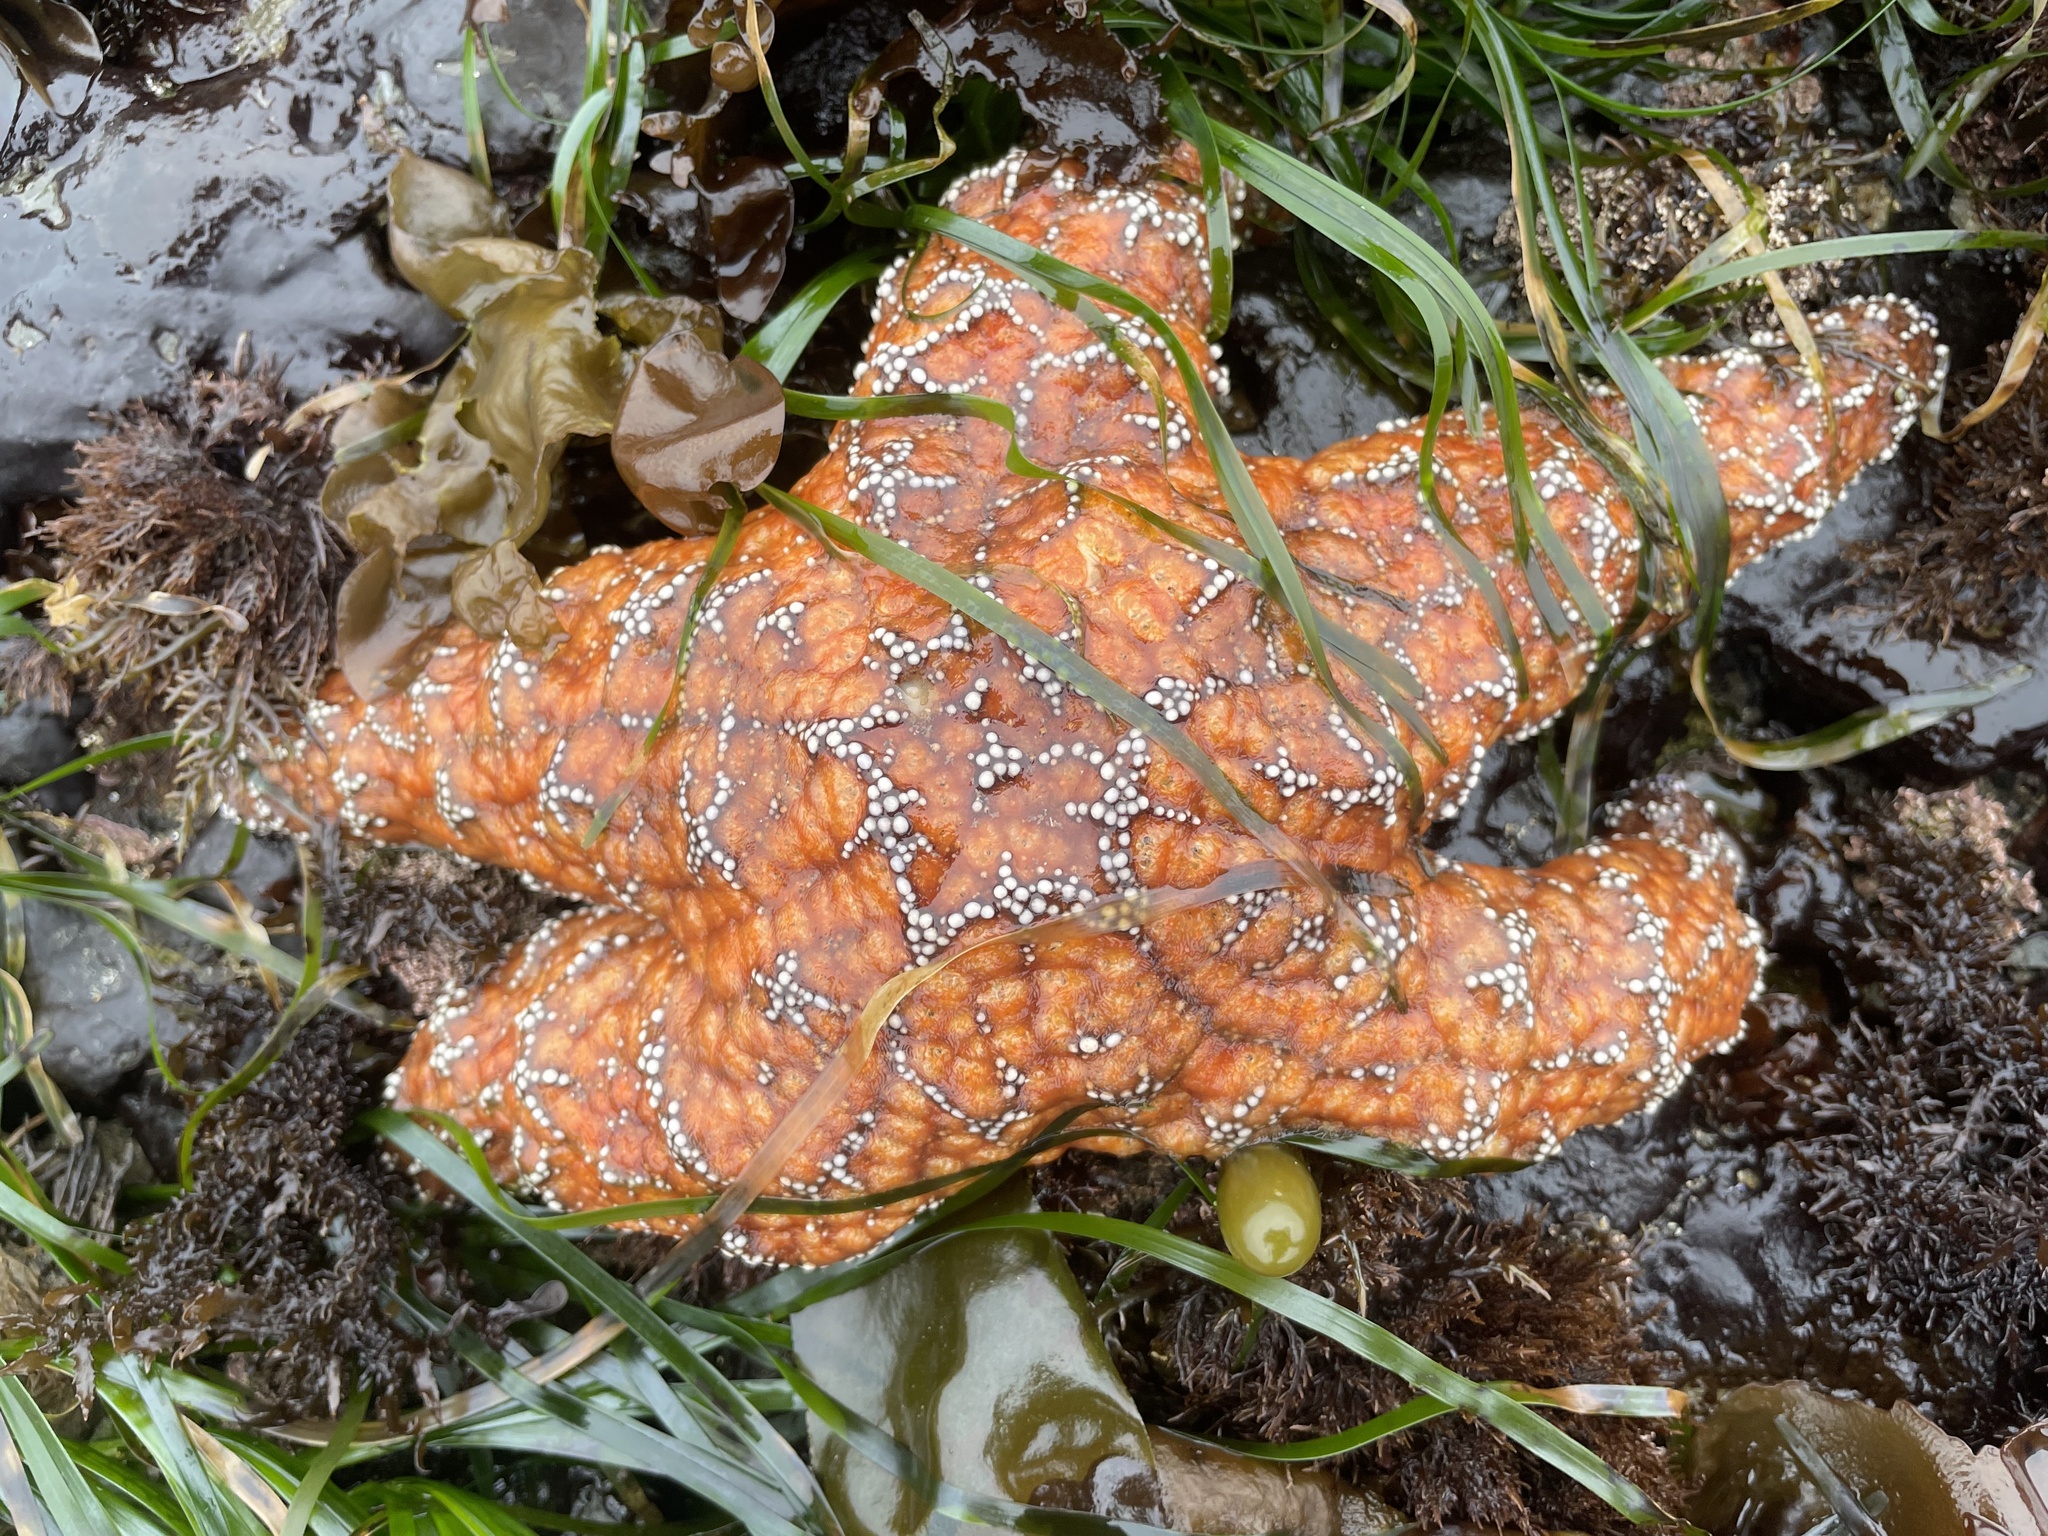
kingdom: Animalia
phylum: Echinodermata
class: Asteroidea
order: Forcipulatida
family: Asteriidae
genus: Pisaster
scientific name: Pisaster ochraceus
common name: Ochre stars
